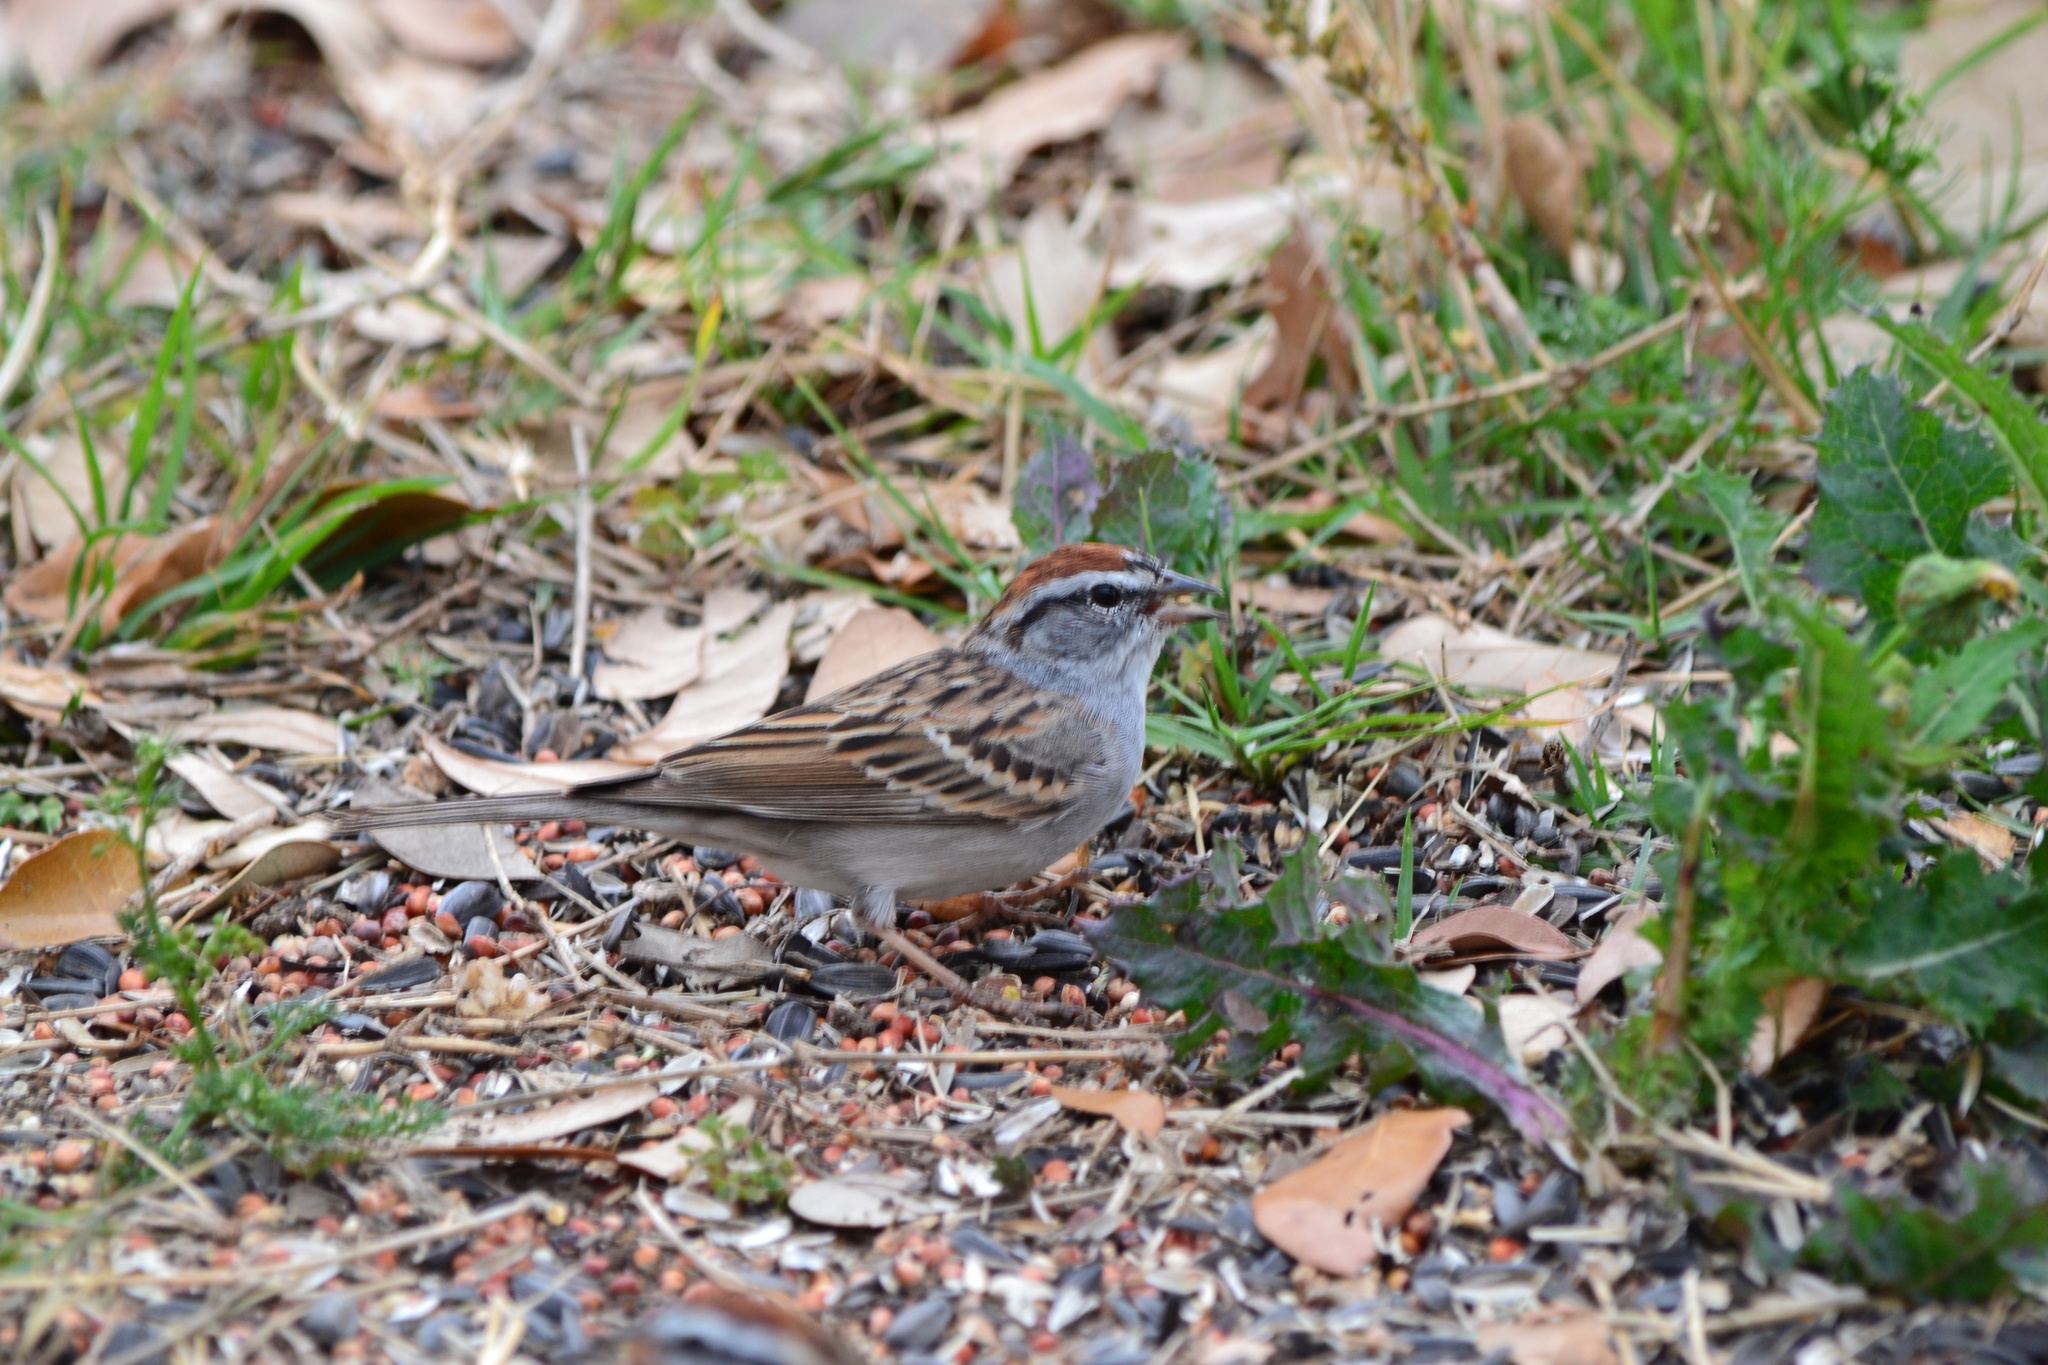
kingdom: Animalia
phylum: Chordata
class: Aves
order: Passeriformes
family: Passerellidae
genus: Spizella
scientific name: Spizella passerina
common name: Chipping sparrow
